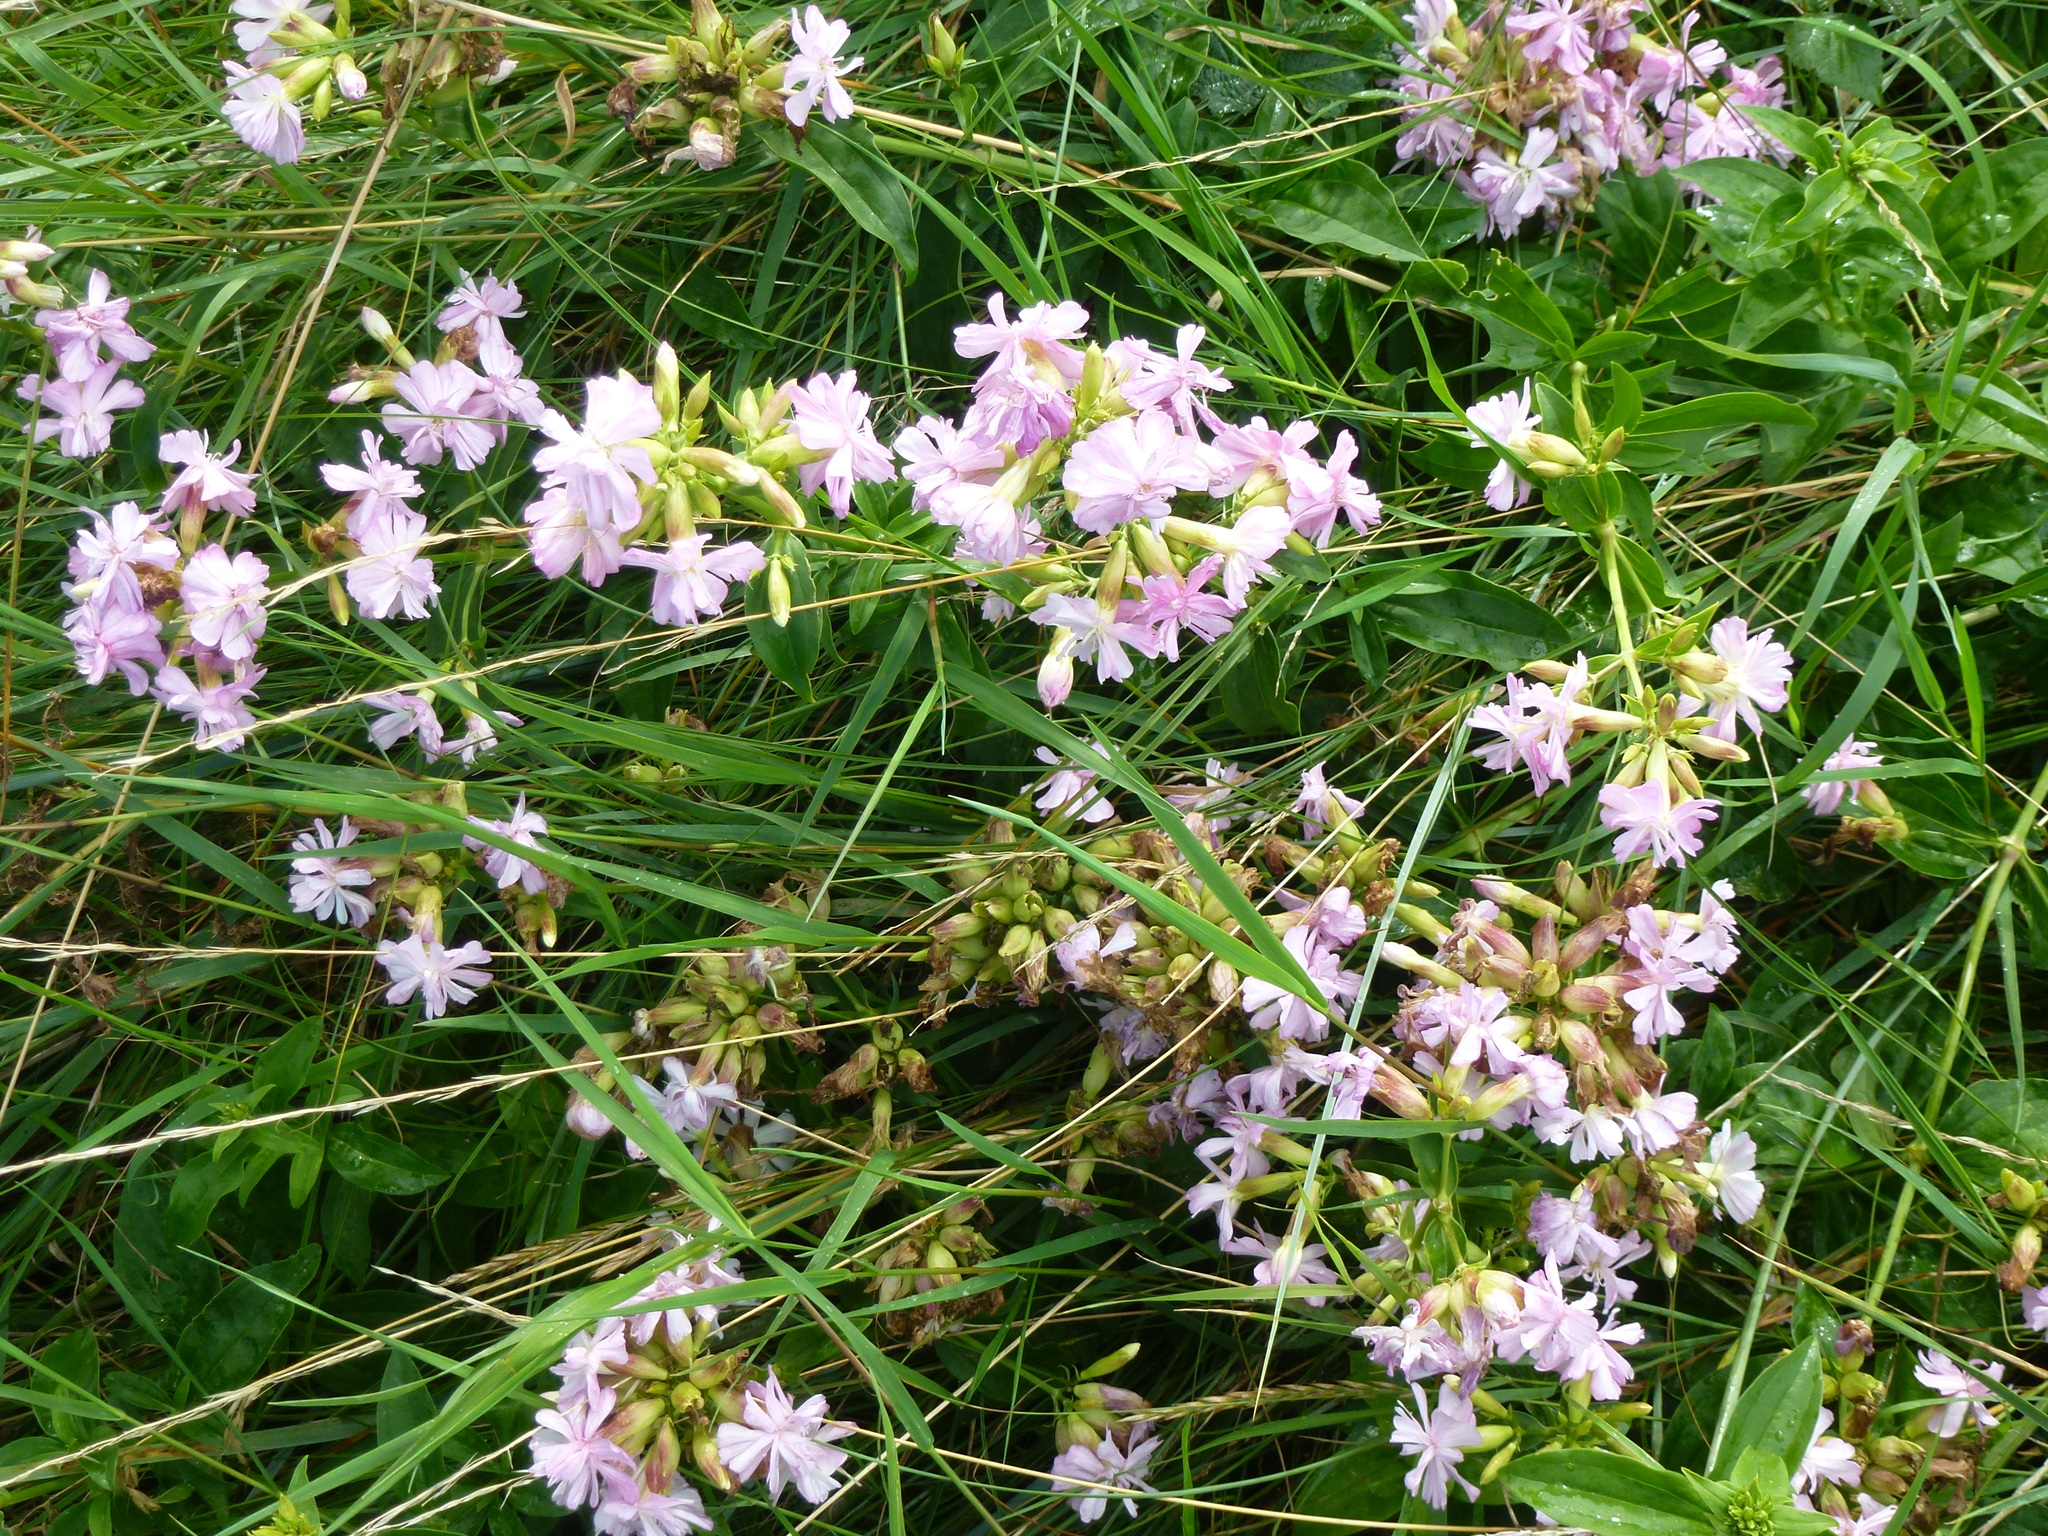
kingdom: Plantae
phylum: Tracheophyta
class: Magnoliopsida
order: Caryophyllales
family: Caryophyllaceae
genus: Saponaria
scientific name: Saponaria officinalis
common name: Soapwort
